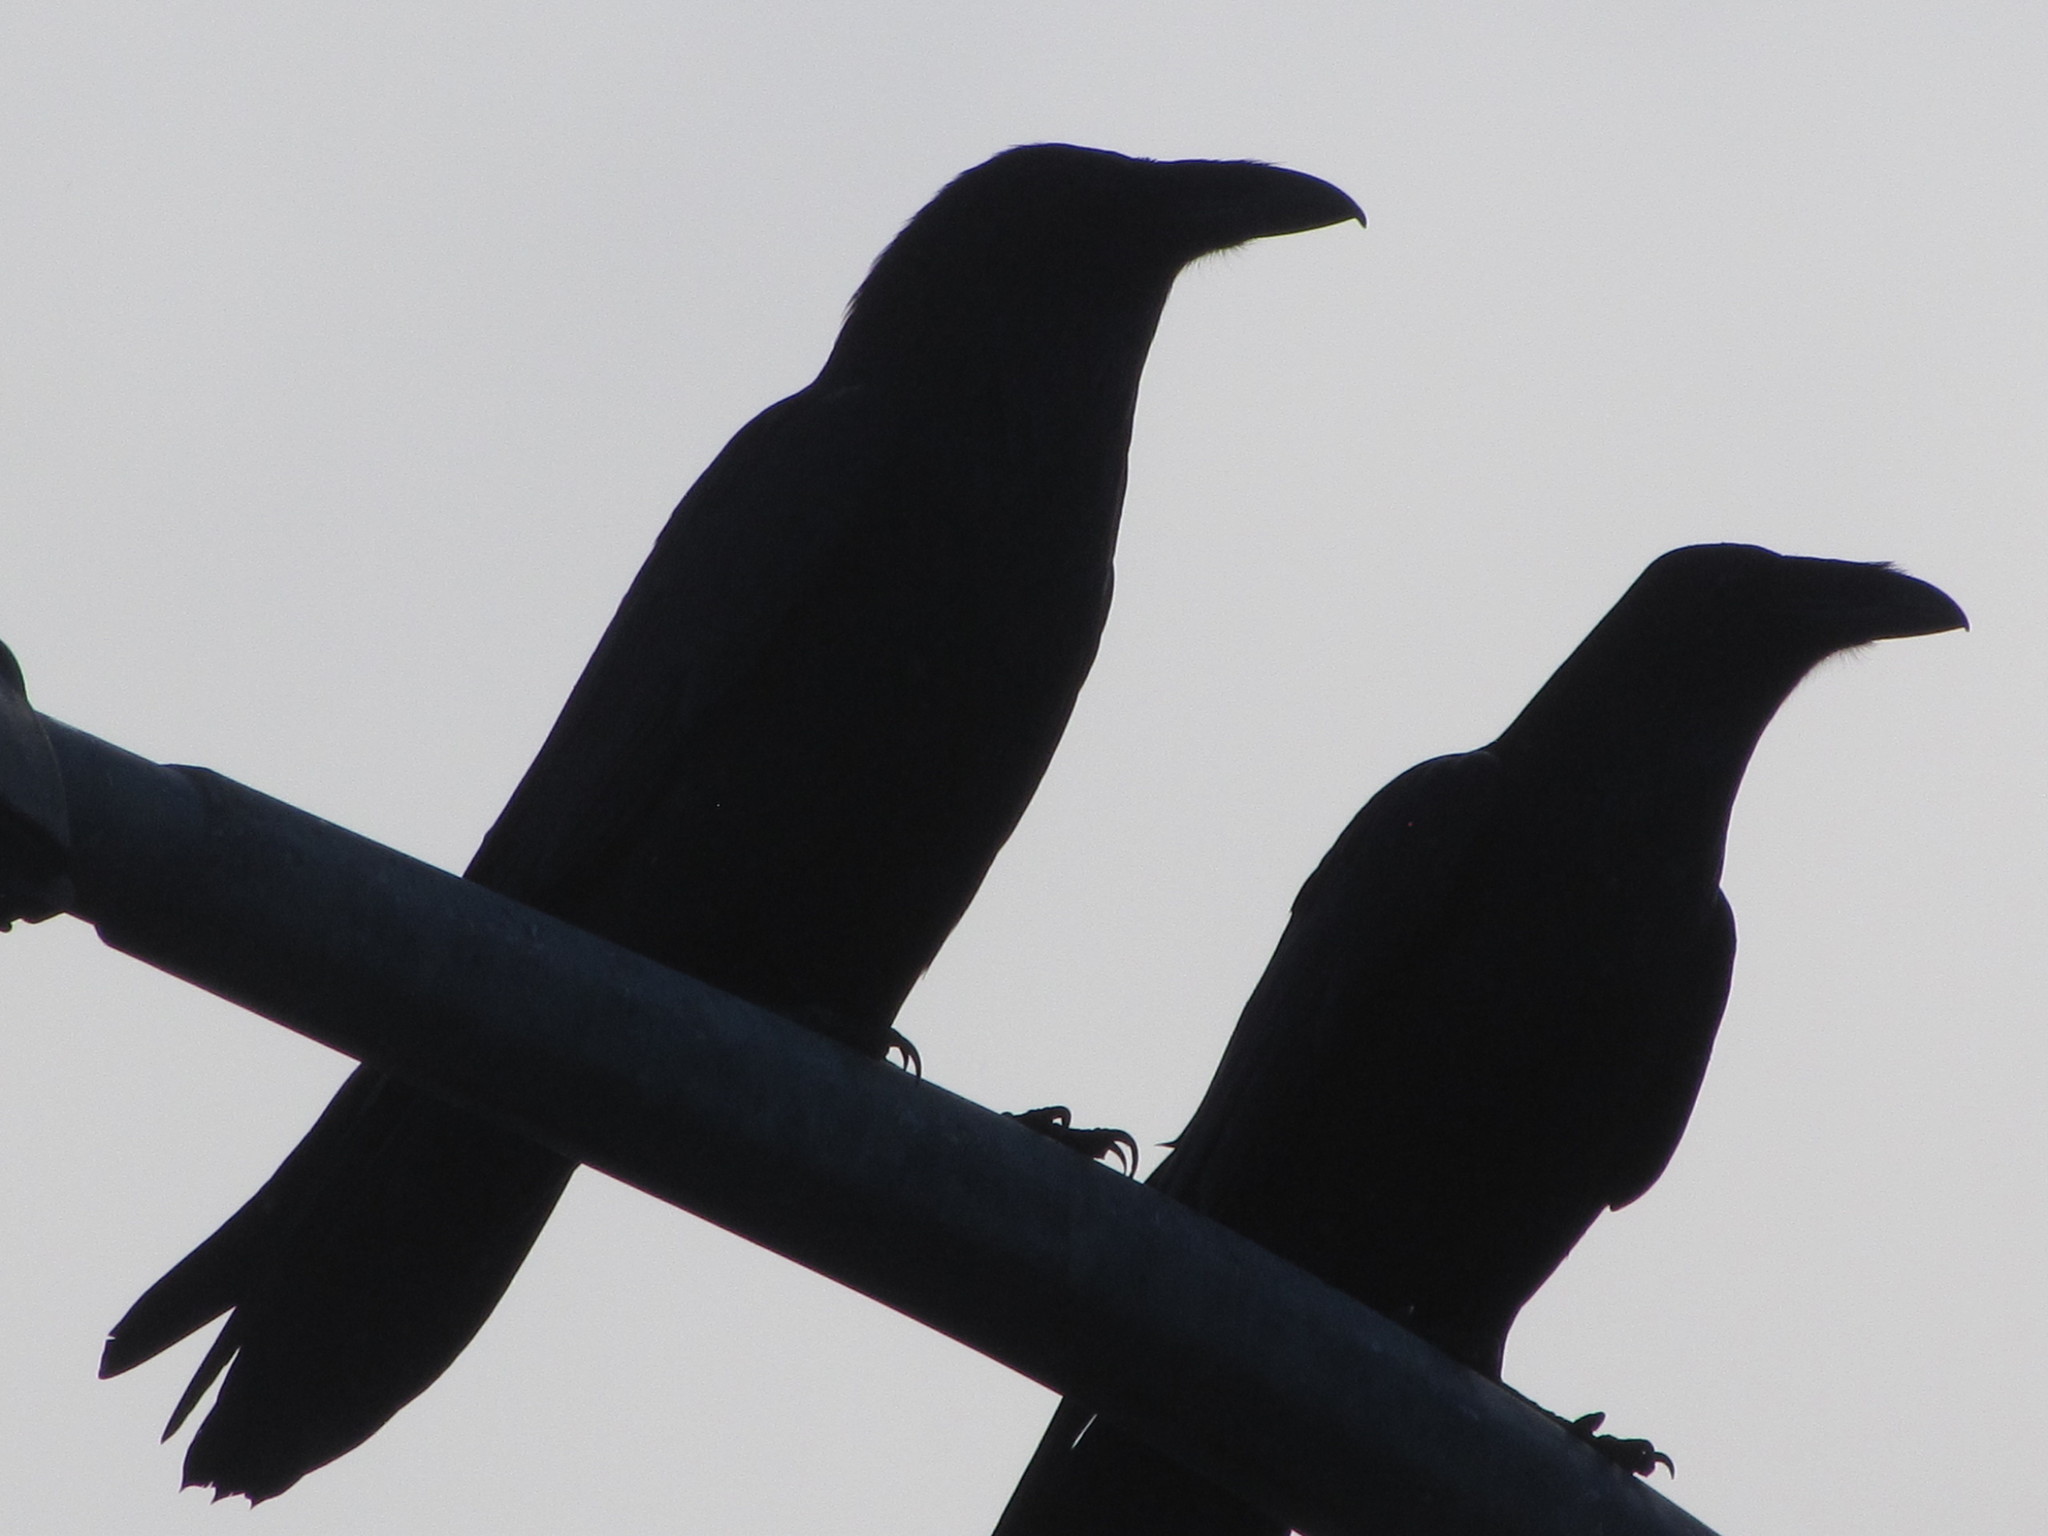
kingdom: Animalia
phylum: Chordata
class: Aves
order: Passeriformes
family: Corvidae
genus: Corvus
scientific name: Corvus corax
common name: Common raven
